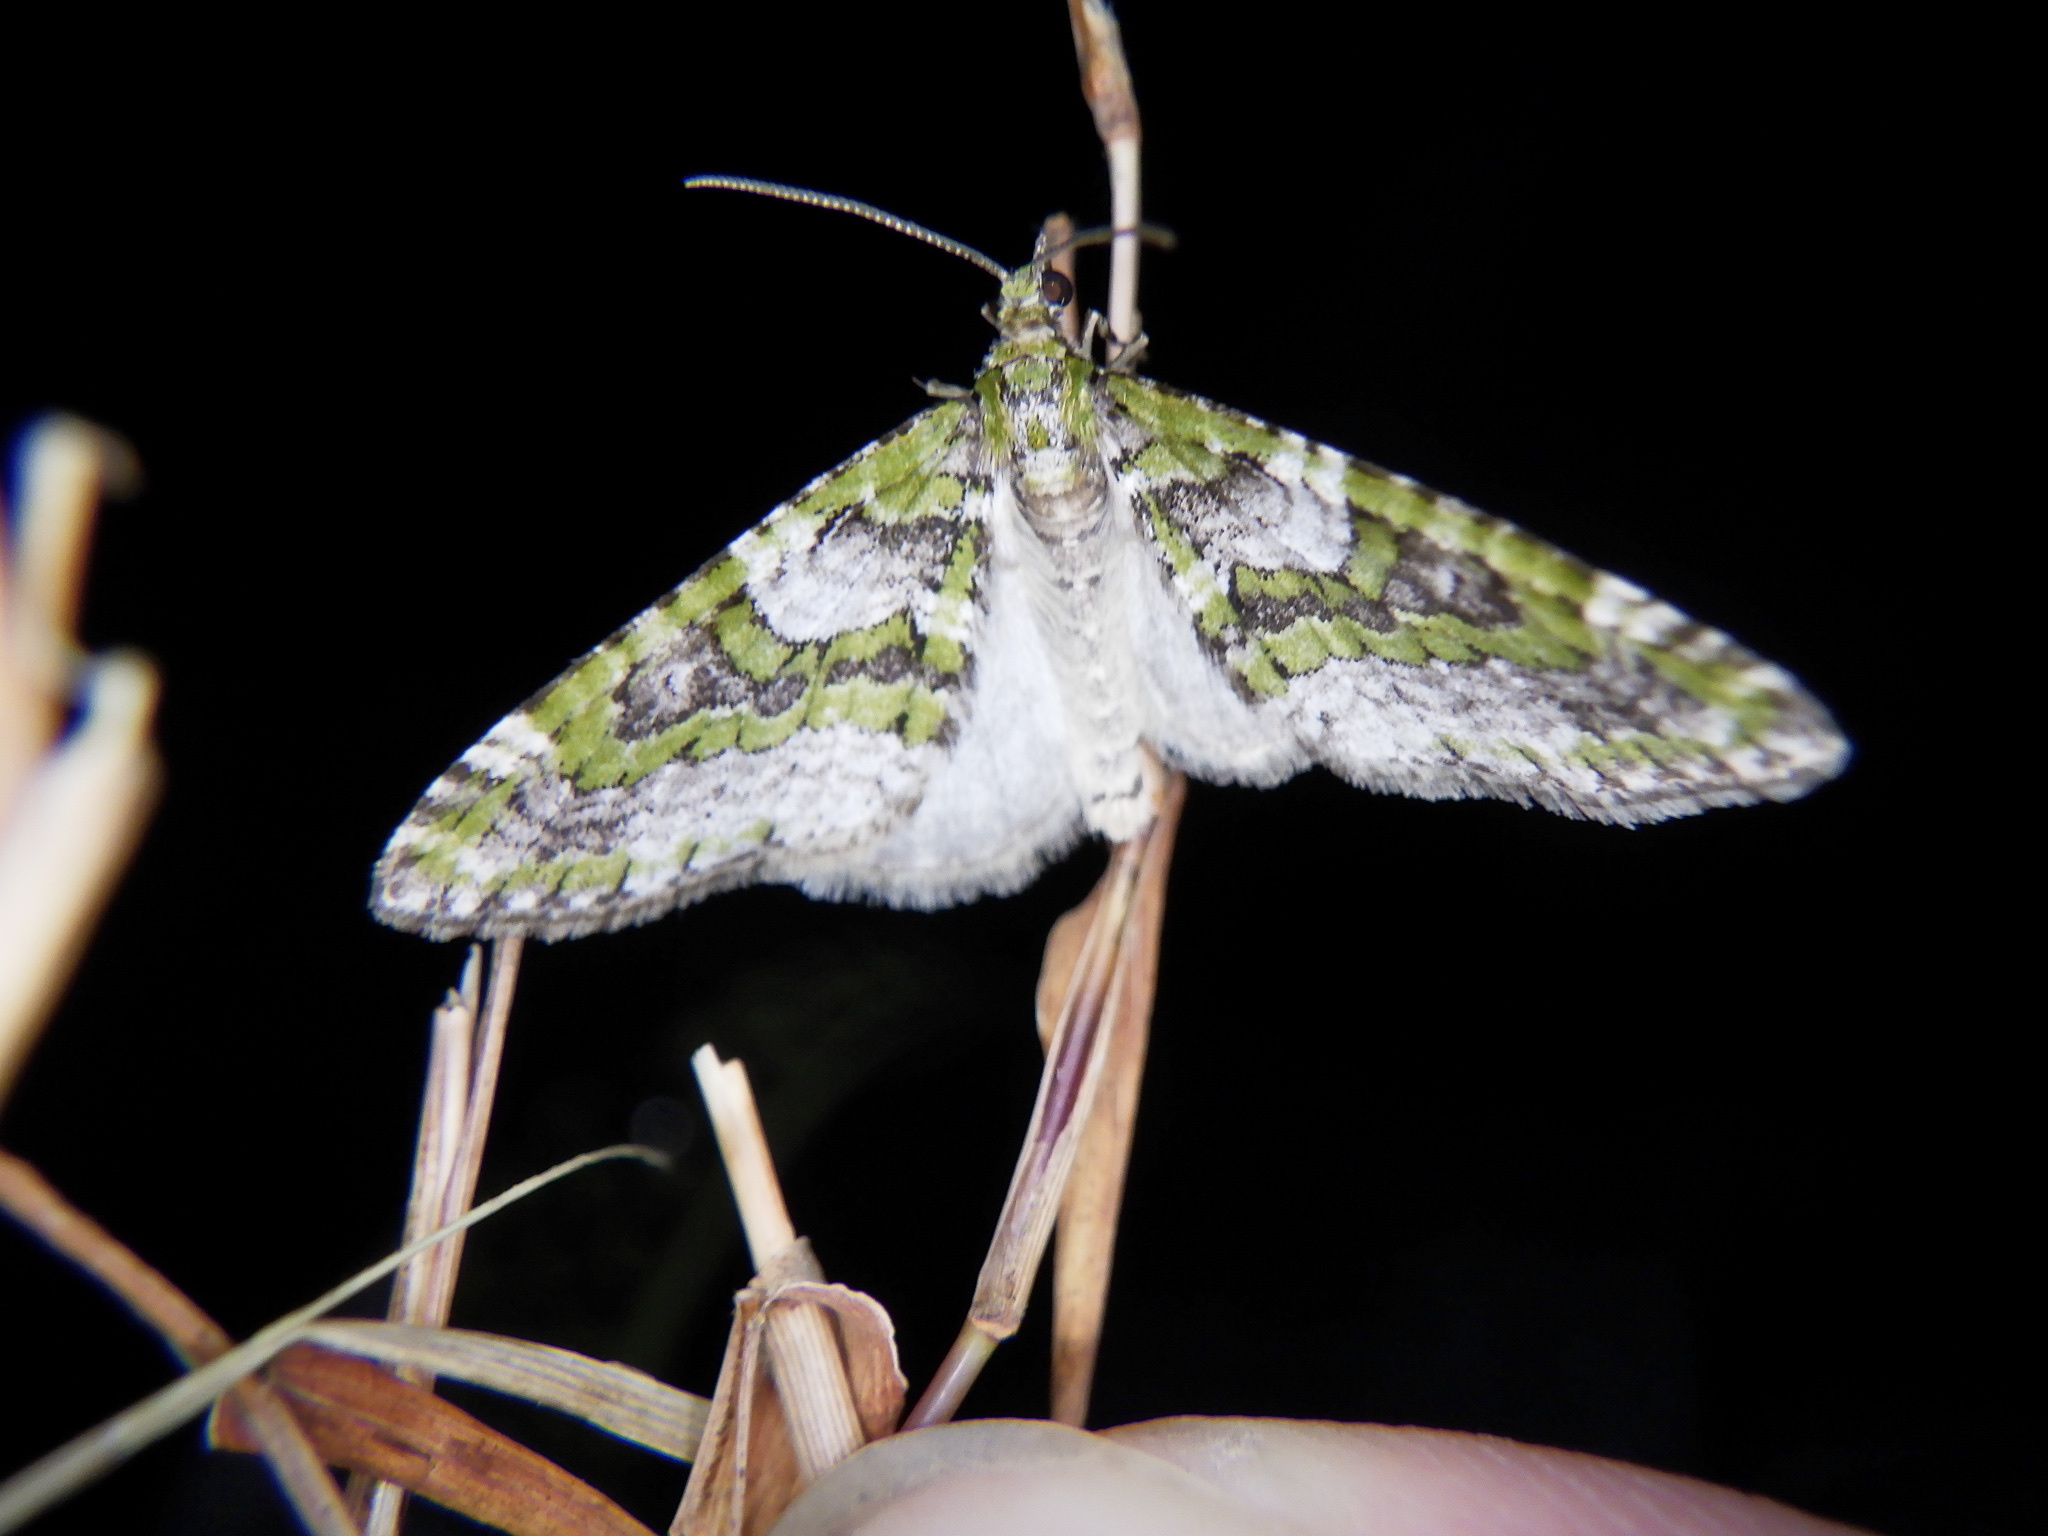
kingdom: Animalia
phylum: Arthropoda
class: Insecta
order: Lepidoptera
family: Geometridae
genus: Esakiopteryx
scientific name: Esakiopteryx volitans
